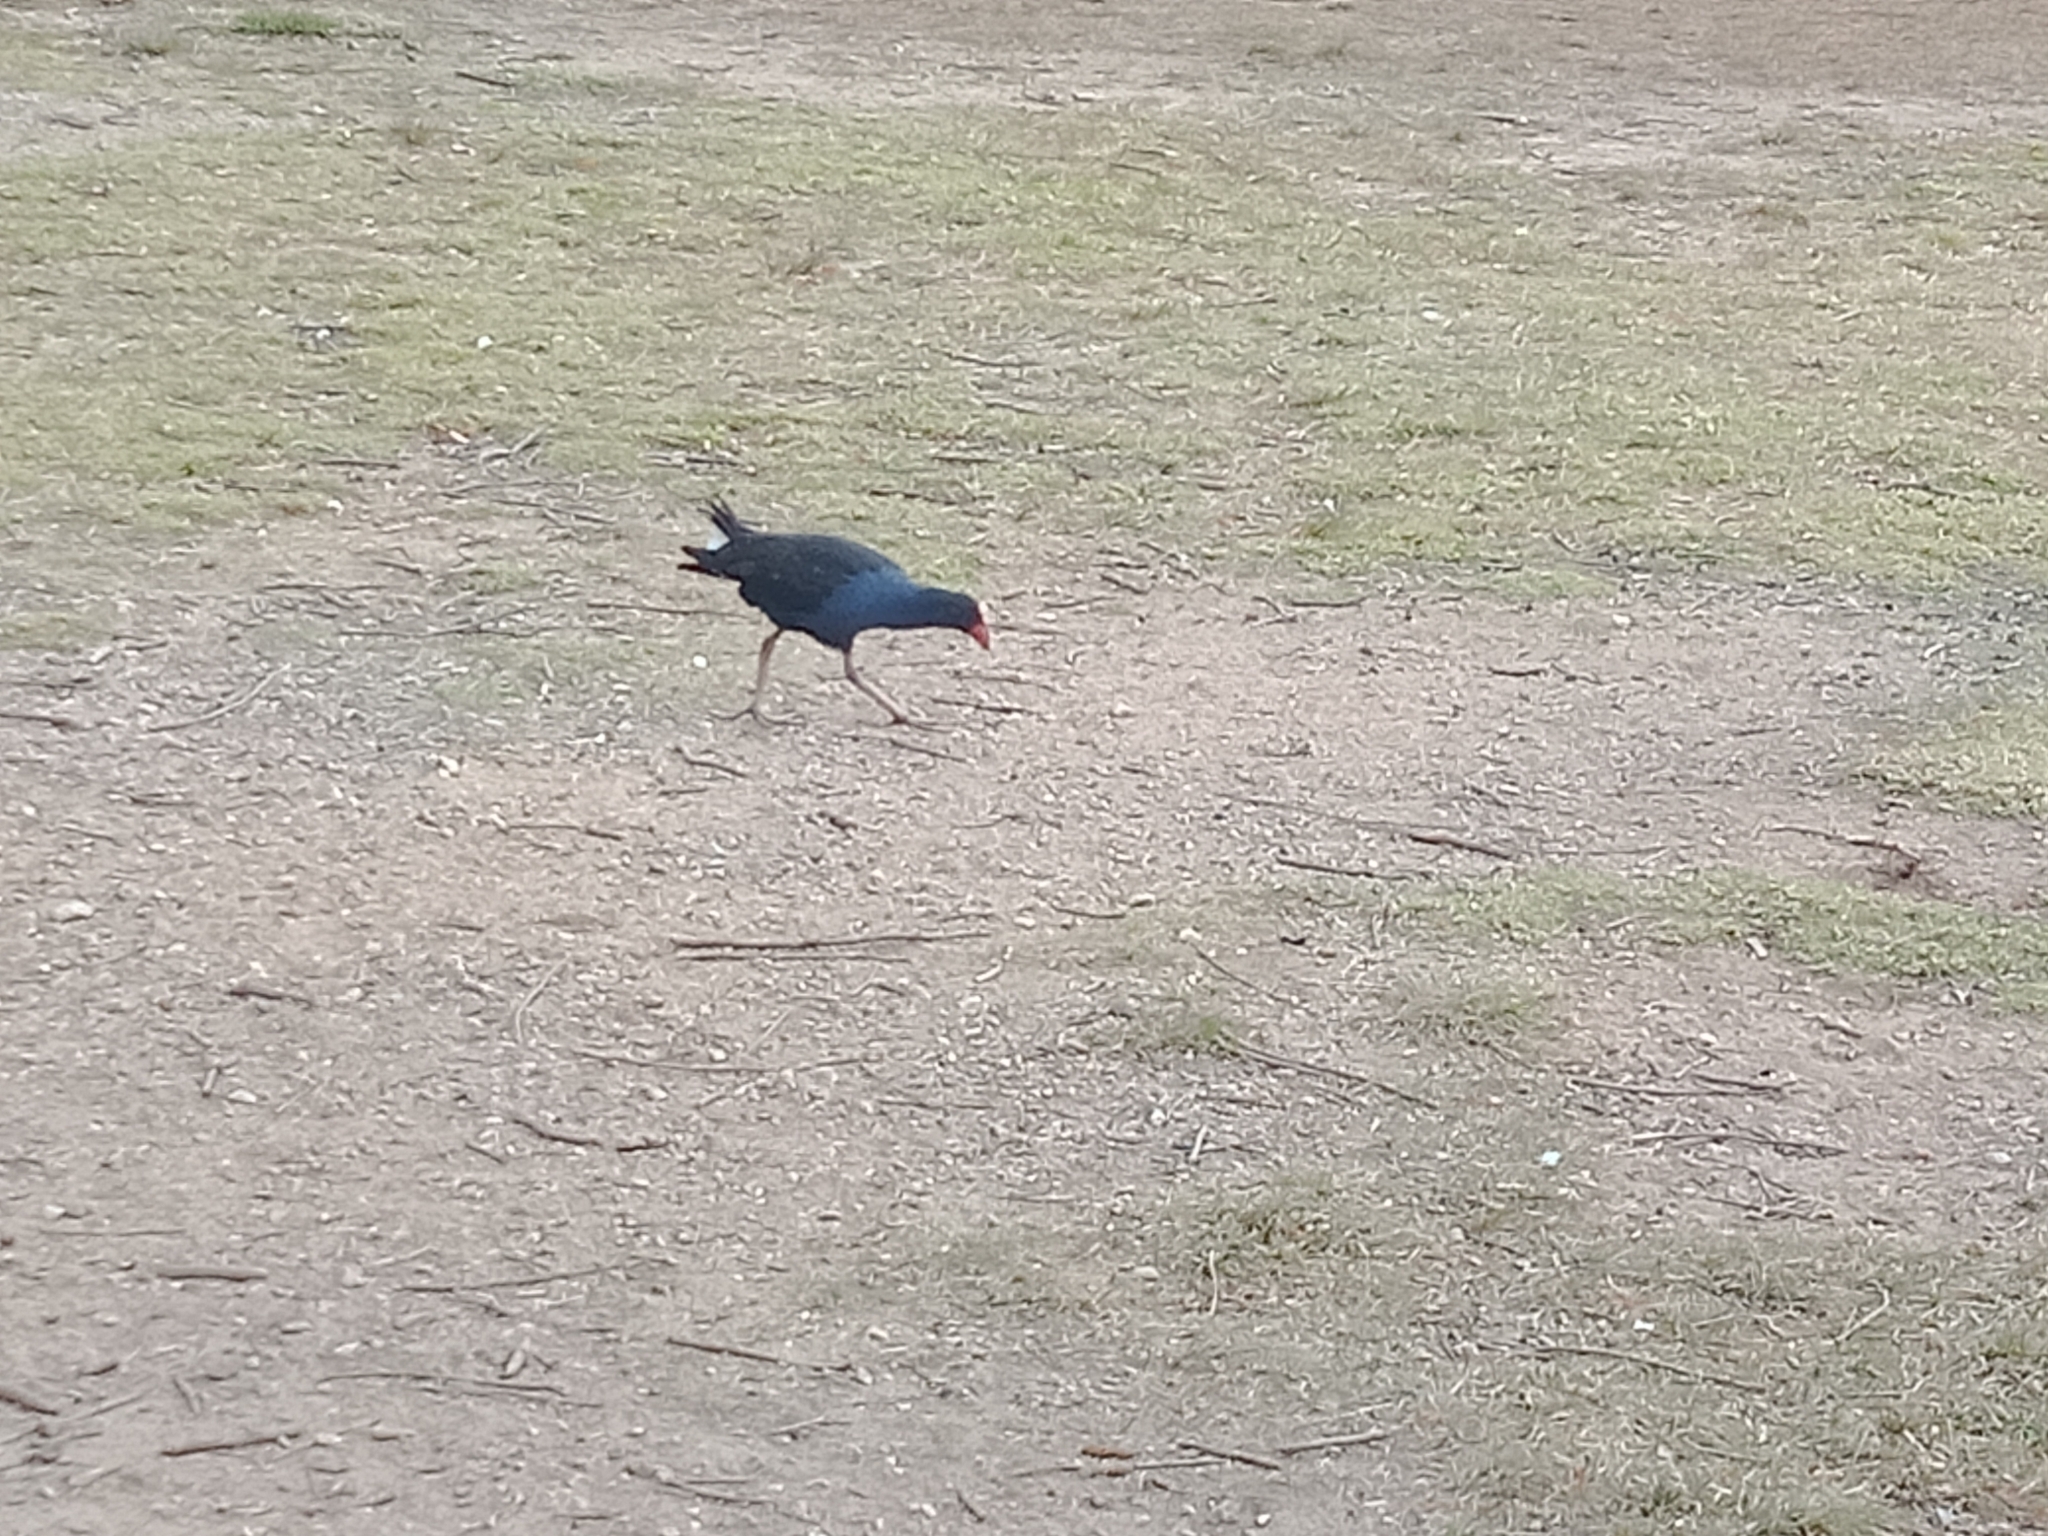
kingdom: Animalia
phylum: Chordata
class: Aves
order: Gruiformes
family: Rallidae
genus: Porphyrio
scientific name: Porphyrio melanotus
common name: Australasian swamphen
